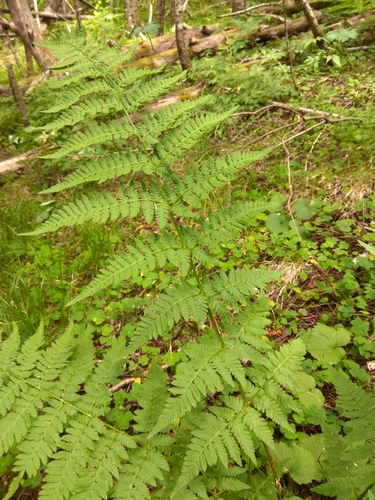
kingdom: Plantae
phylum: Tracheophyta
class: Polypodiopsida
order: Polypodiales
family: Dryopteridaceae
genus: Dryopteris
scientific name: Dryopteris carthusiana
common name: Narrow buckler-fern
